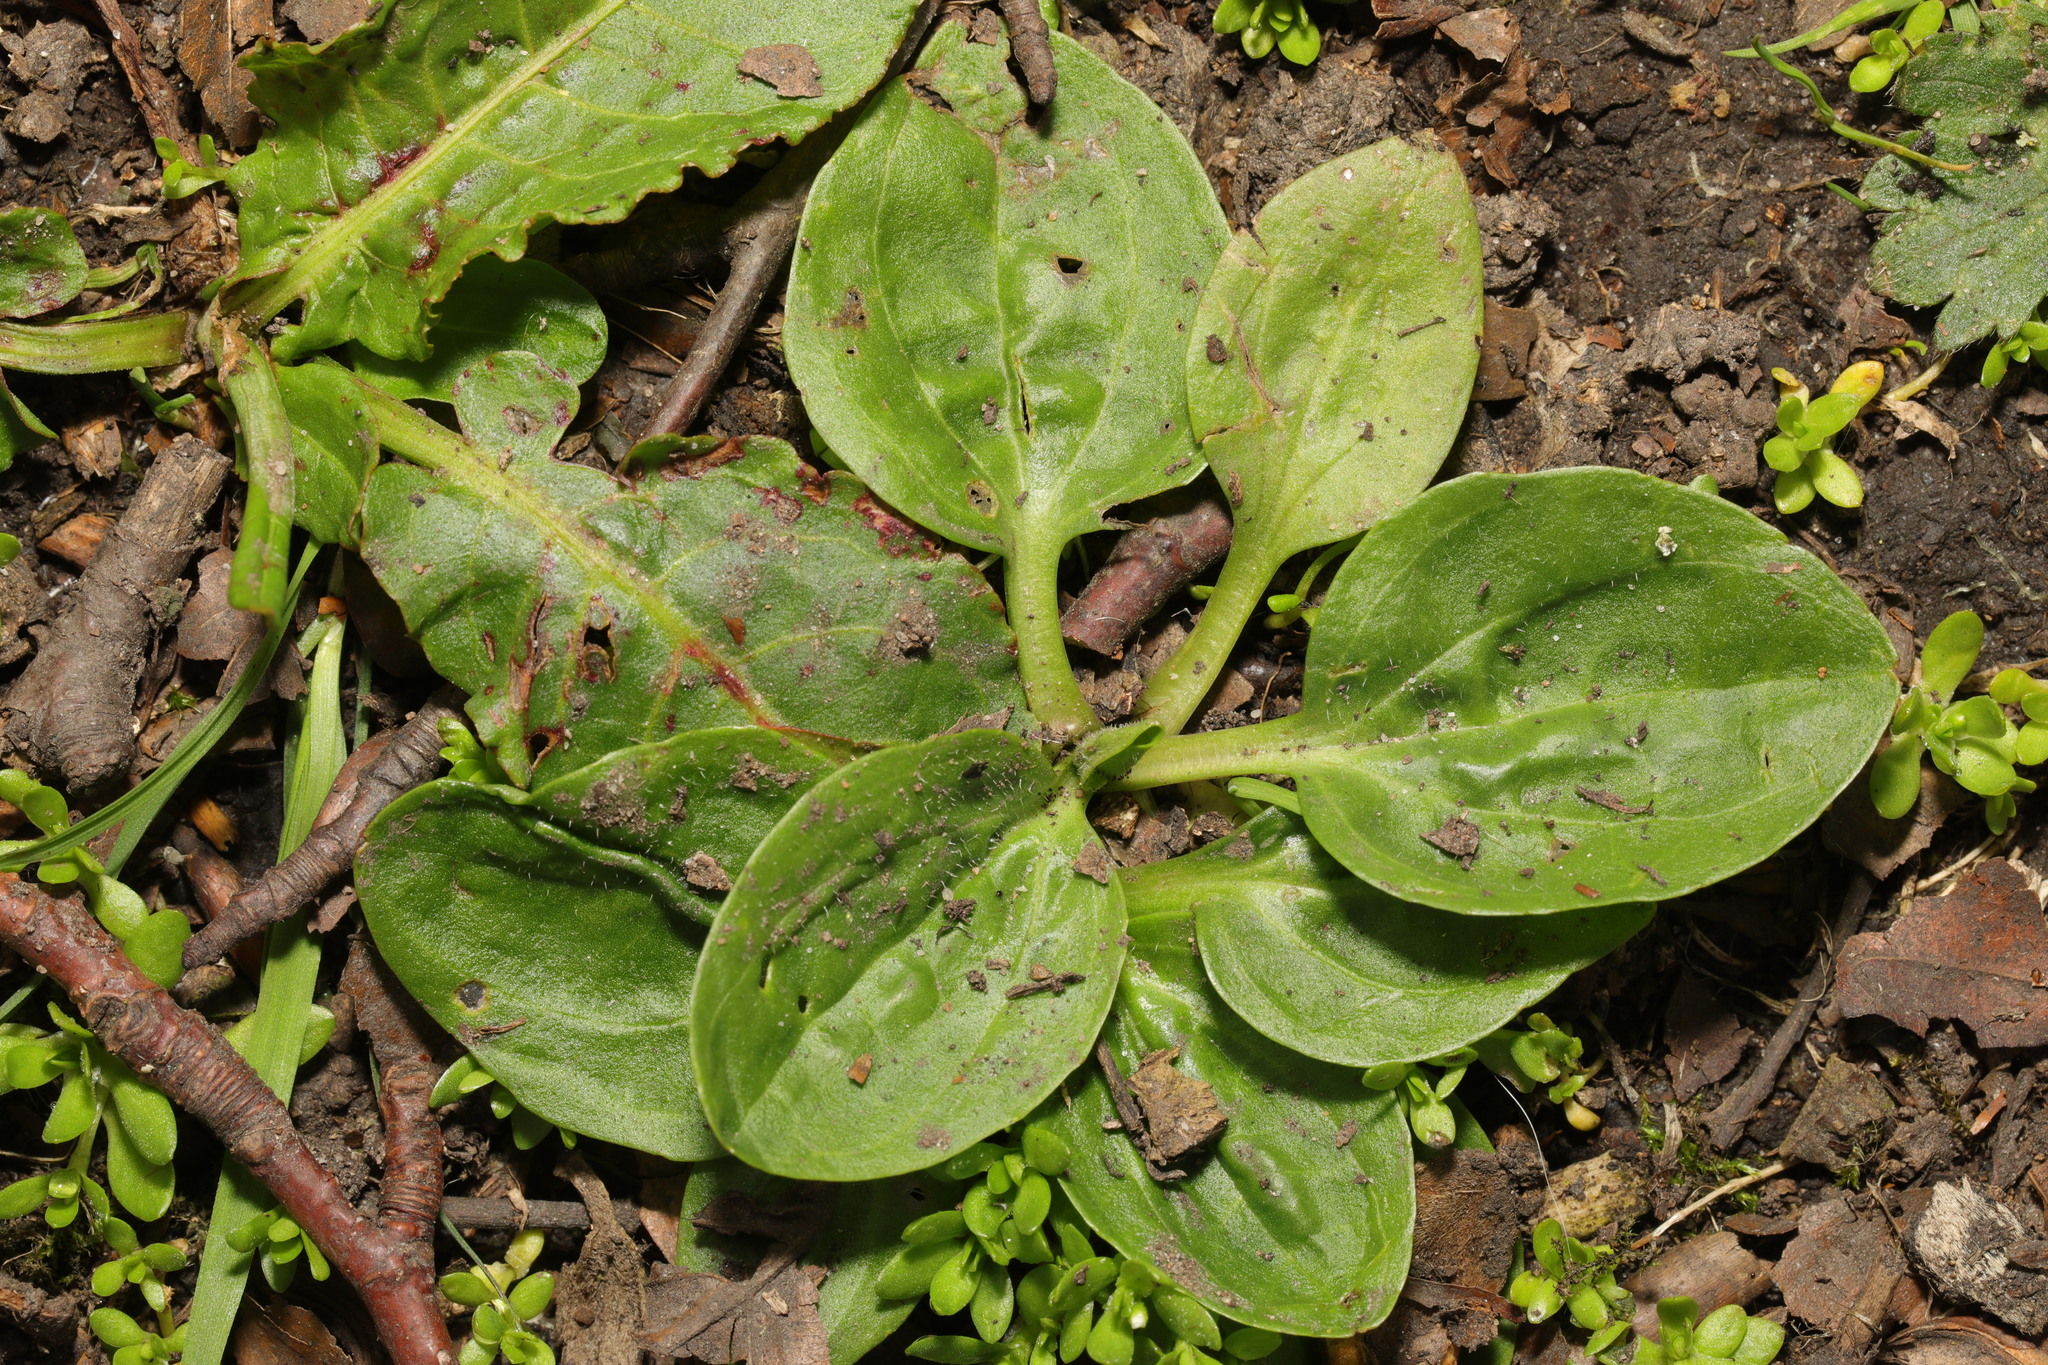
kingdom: Plantae
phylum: Tracheophyta
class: Magnoliopsida
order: Lamiales
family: Plantaginaceae
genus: Plantago
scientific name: Plantago major
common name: Common plantain
